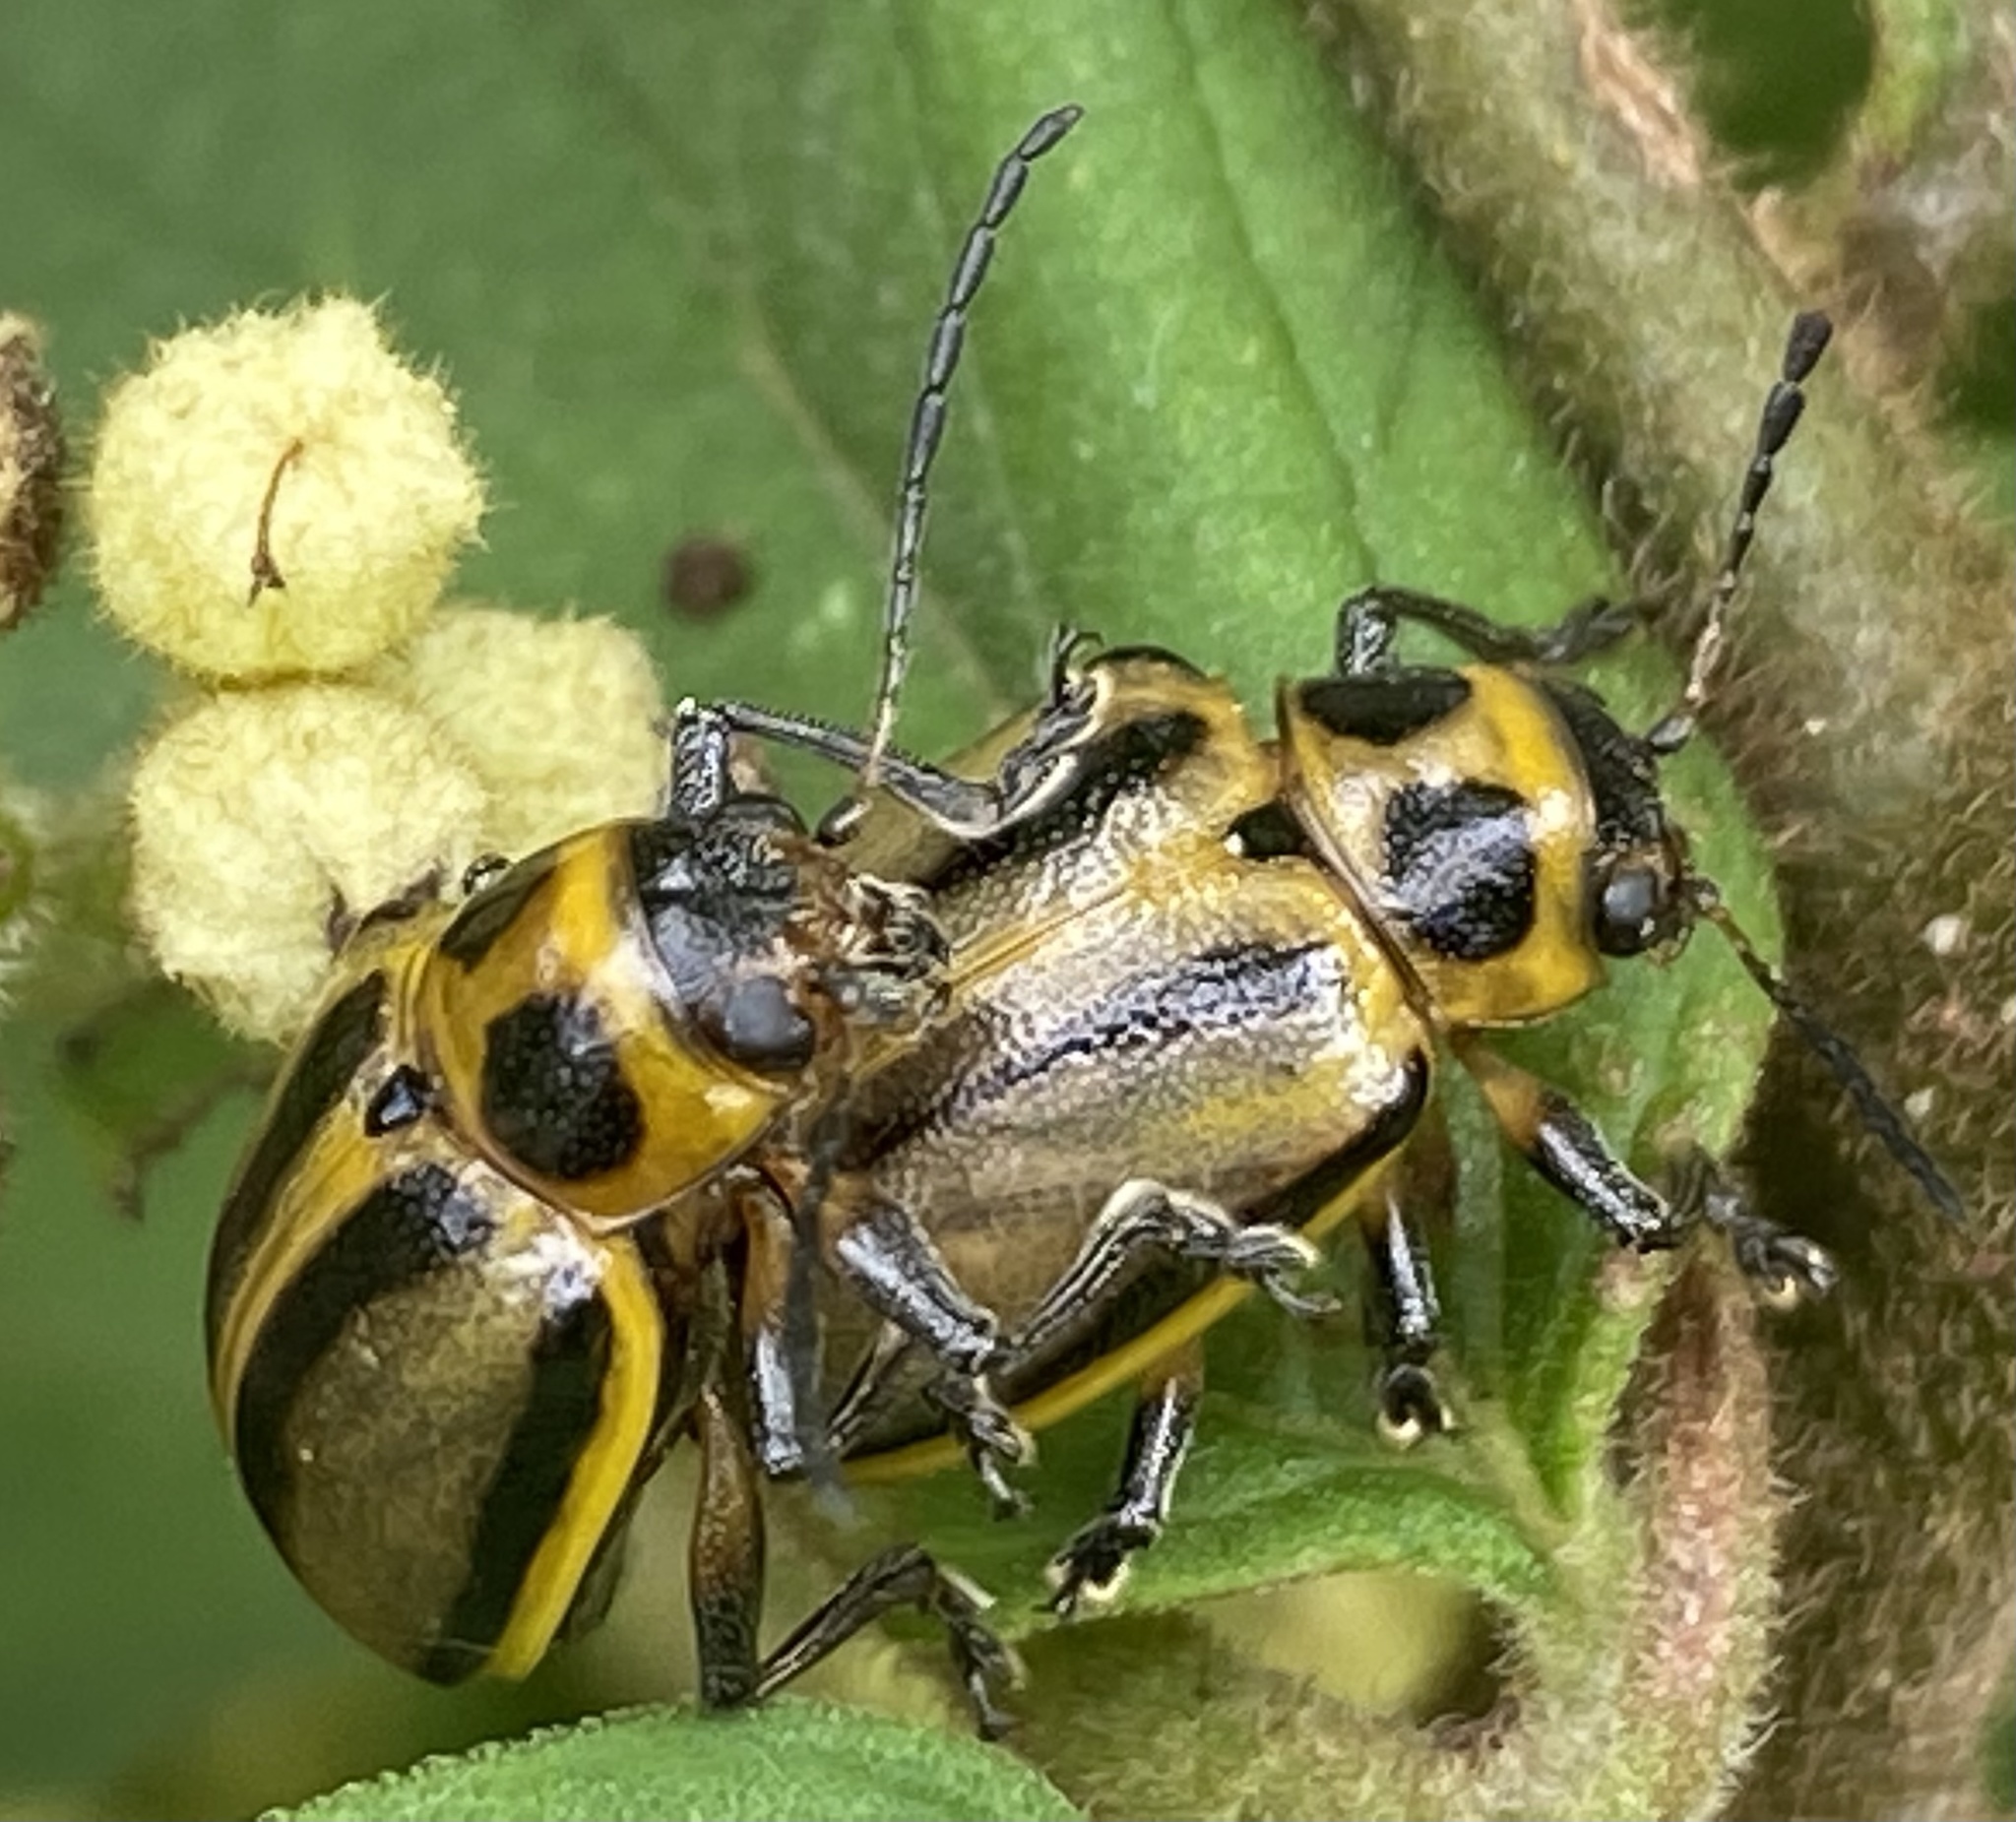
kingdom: Animalia
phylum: Arthropoda
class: Insecta
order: Coleoptera
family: Chrysomelidae
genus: Endocephalus
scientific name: Endocephalus
